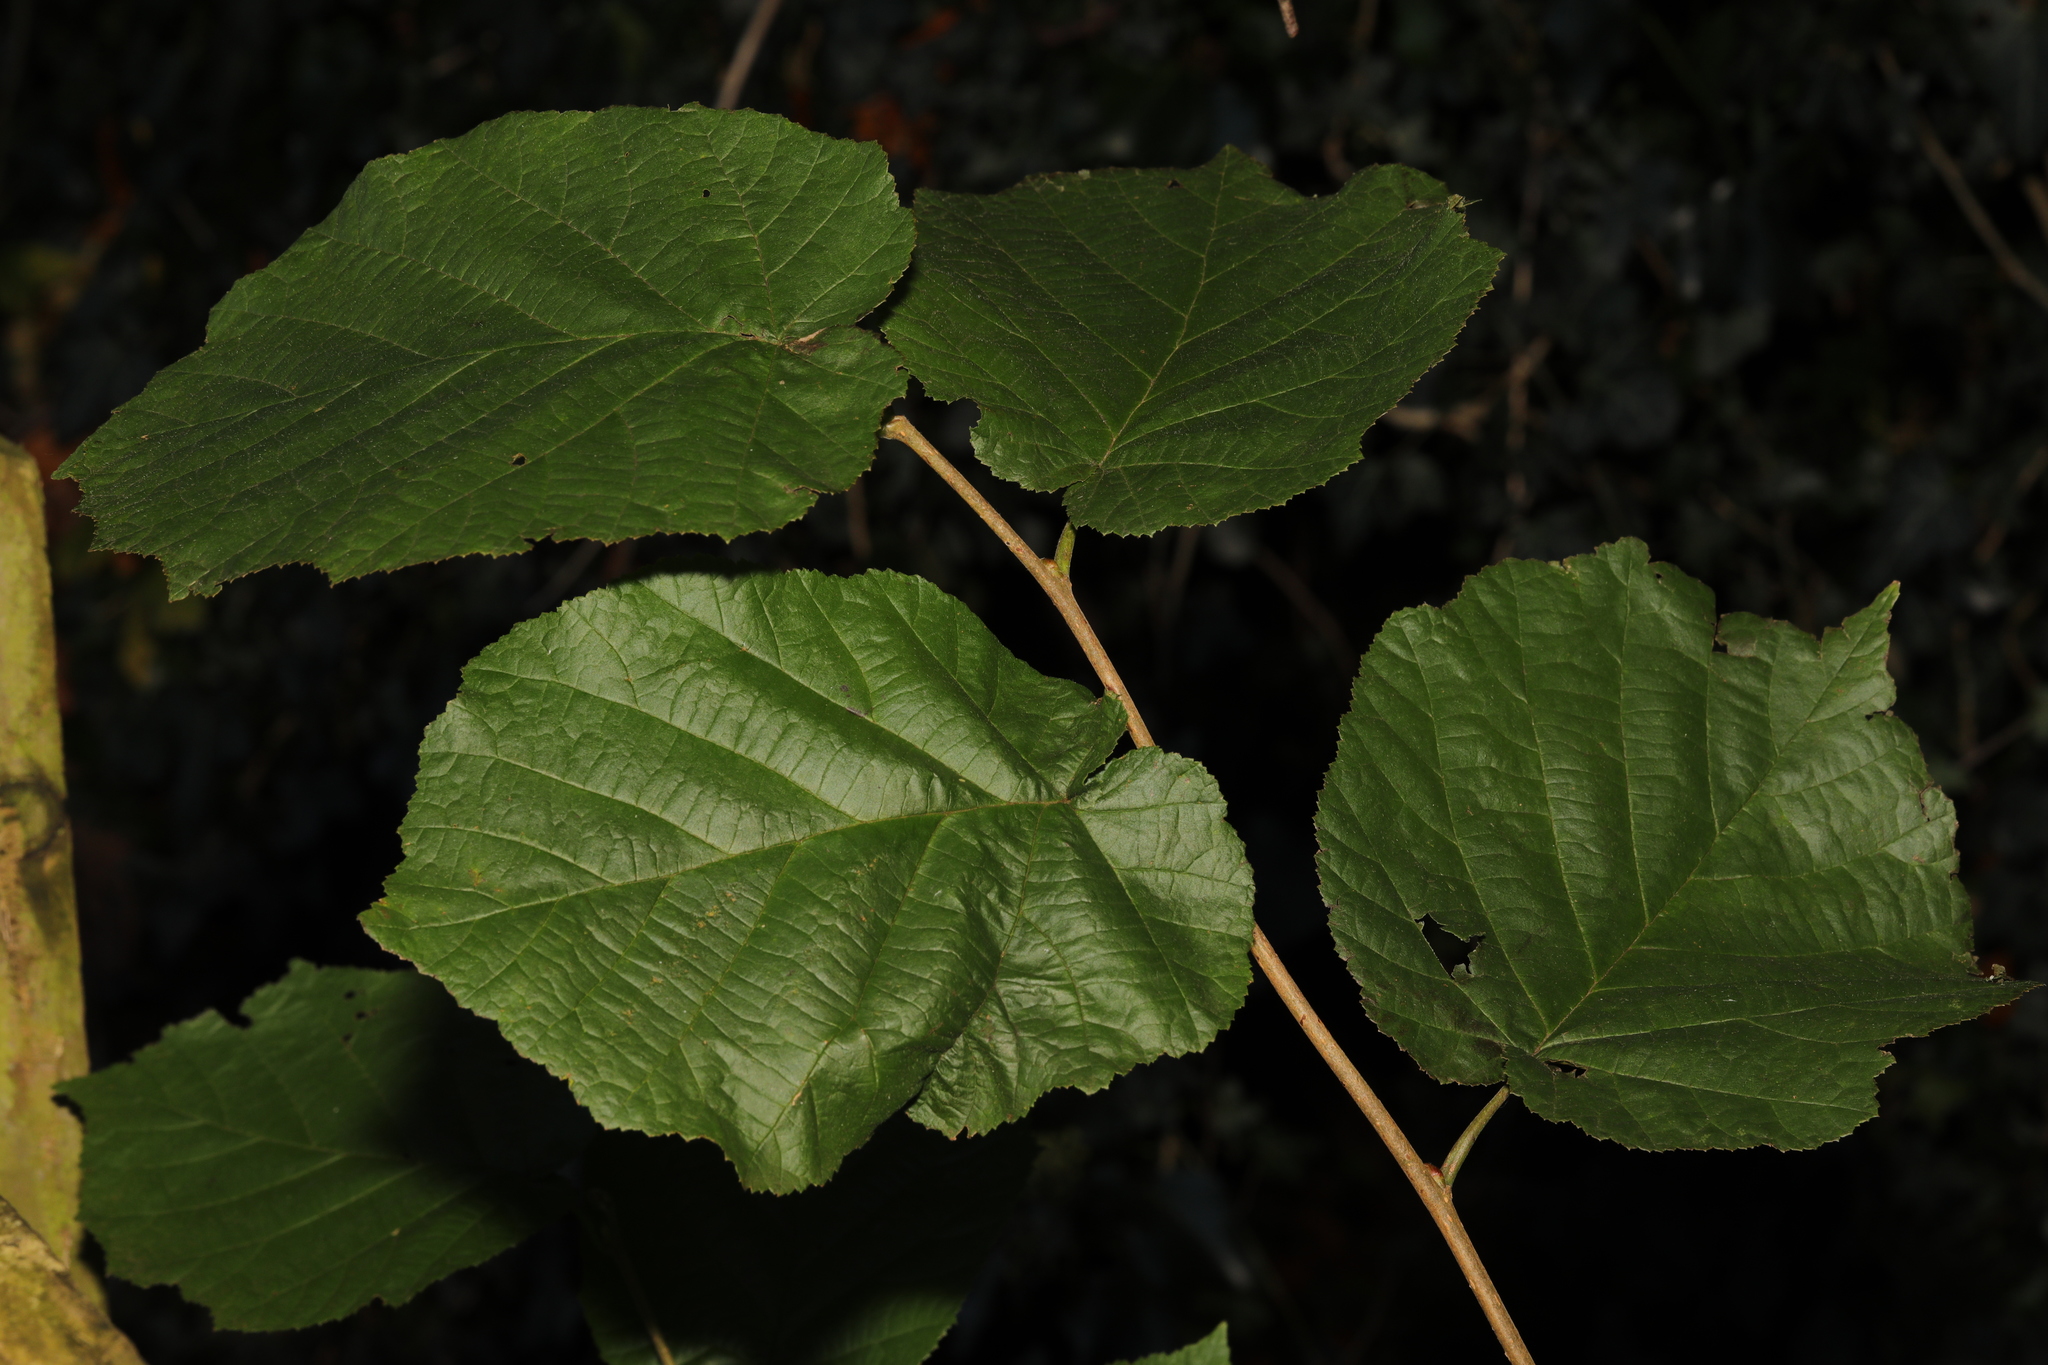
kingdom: Plantae
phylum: Tracheophyta
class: Magnoliopsida
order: Fagales
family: Betulaceae
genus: Corylus
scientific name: Corylus avellana
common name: European hazel
